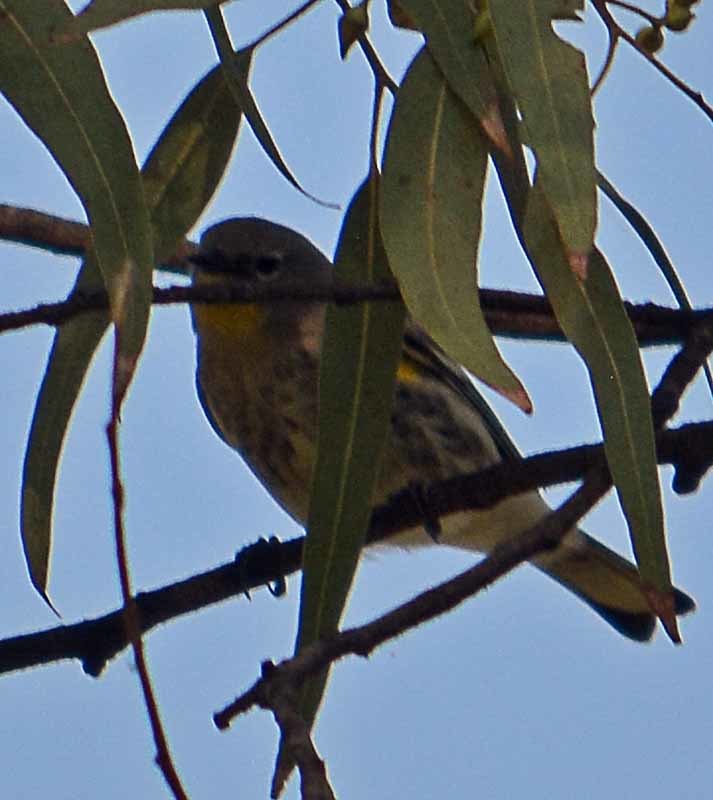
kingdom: Animalia
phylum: Chordata
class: Aves
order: Passeriformes
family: Parulidae
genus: Setophaga
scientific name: Setophaga coronata
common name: Myrtle warbler
